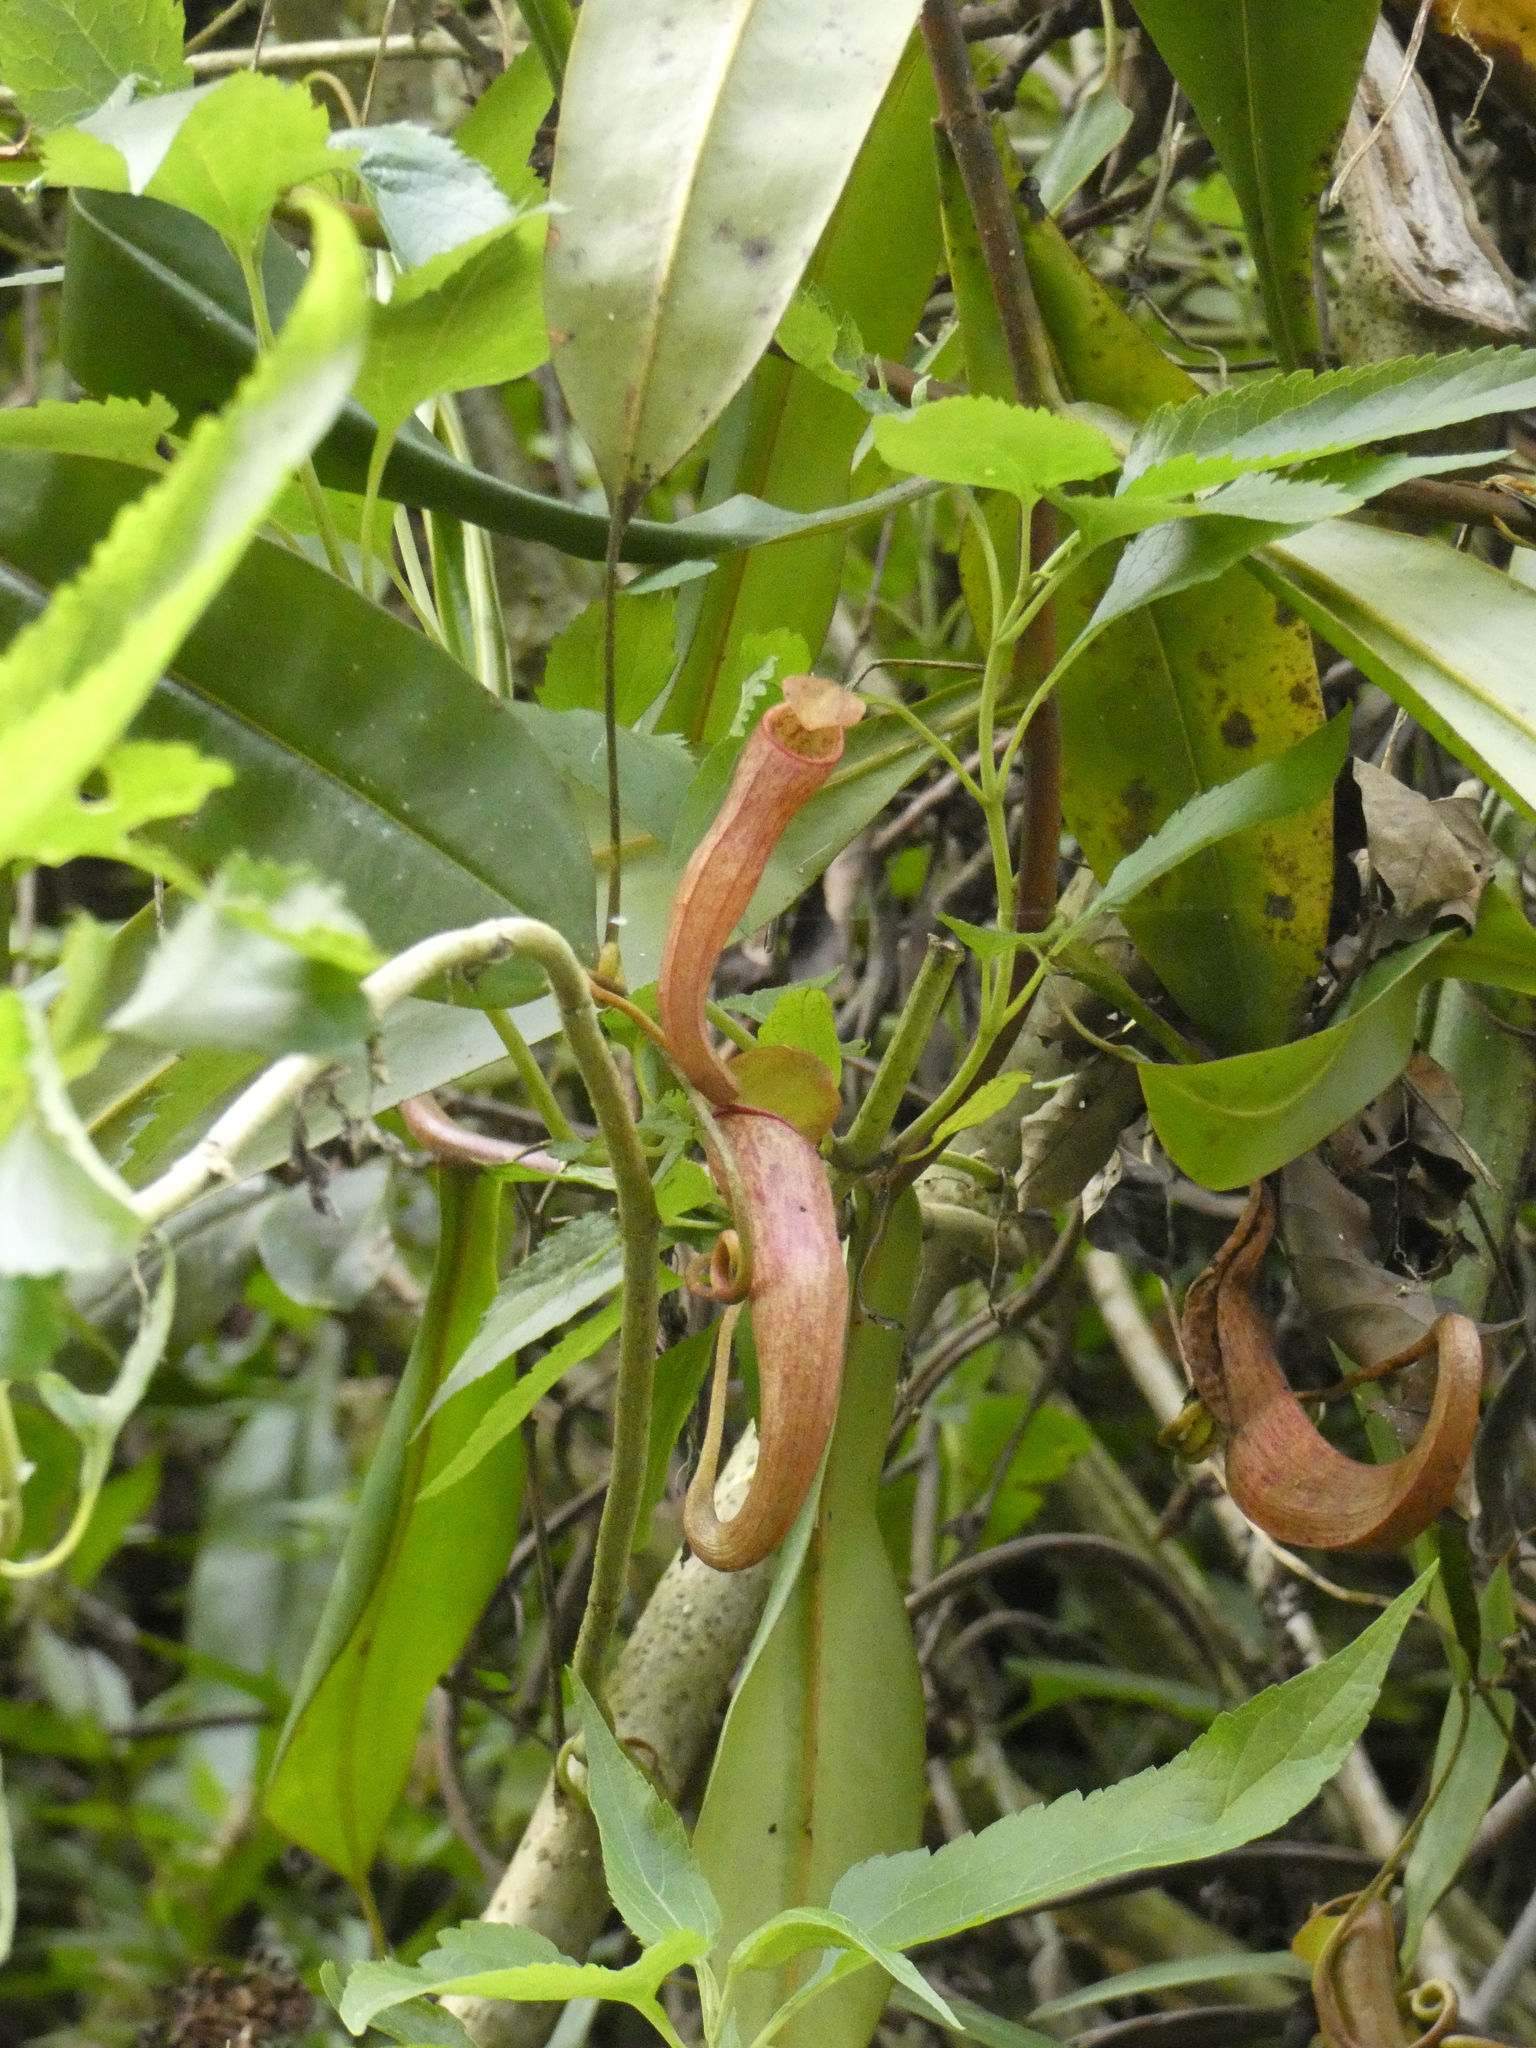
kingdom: Plantae
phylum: Tracheophyta
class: Magnoliopsida
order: Caryophyllales
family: Nepenthaceae
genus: Nepenthes
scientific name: Nepenthes gymnamphora
